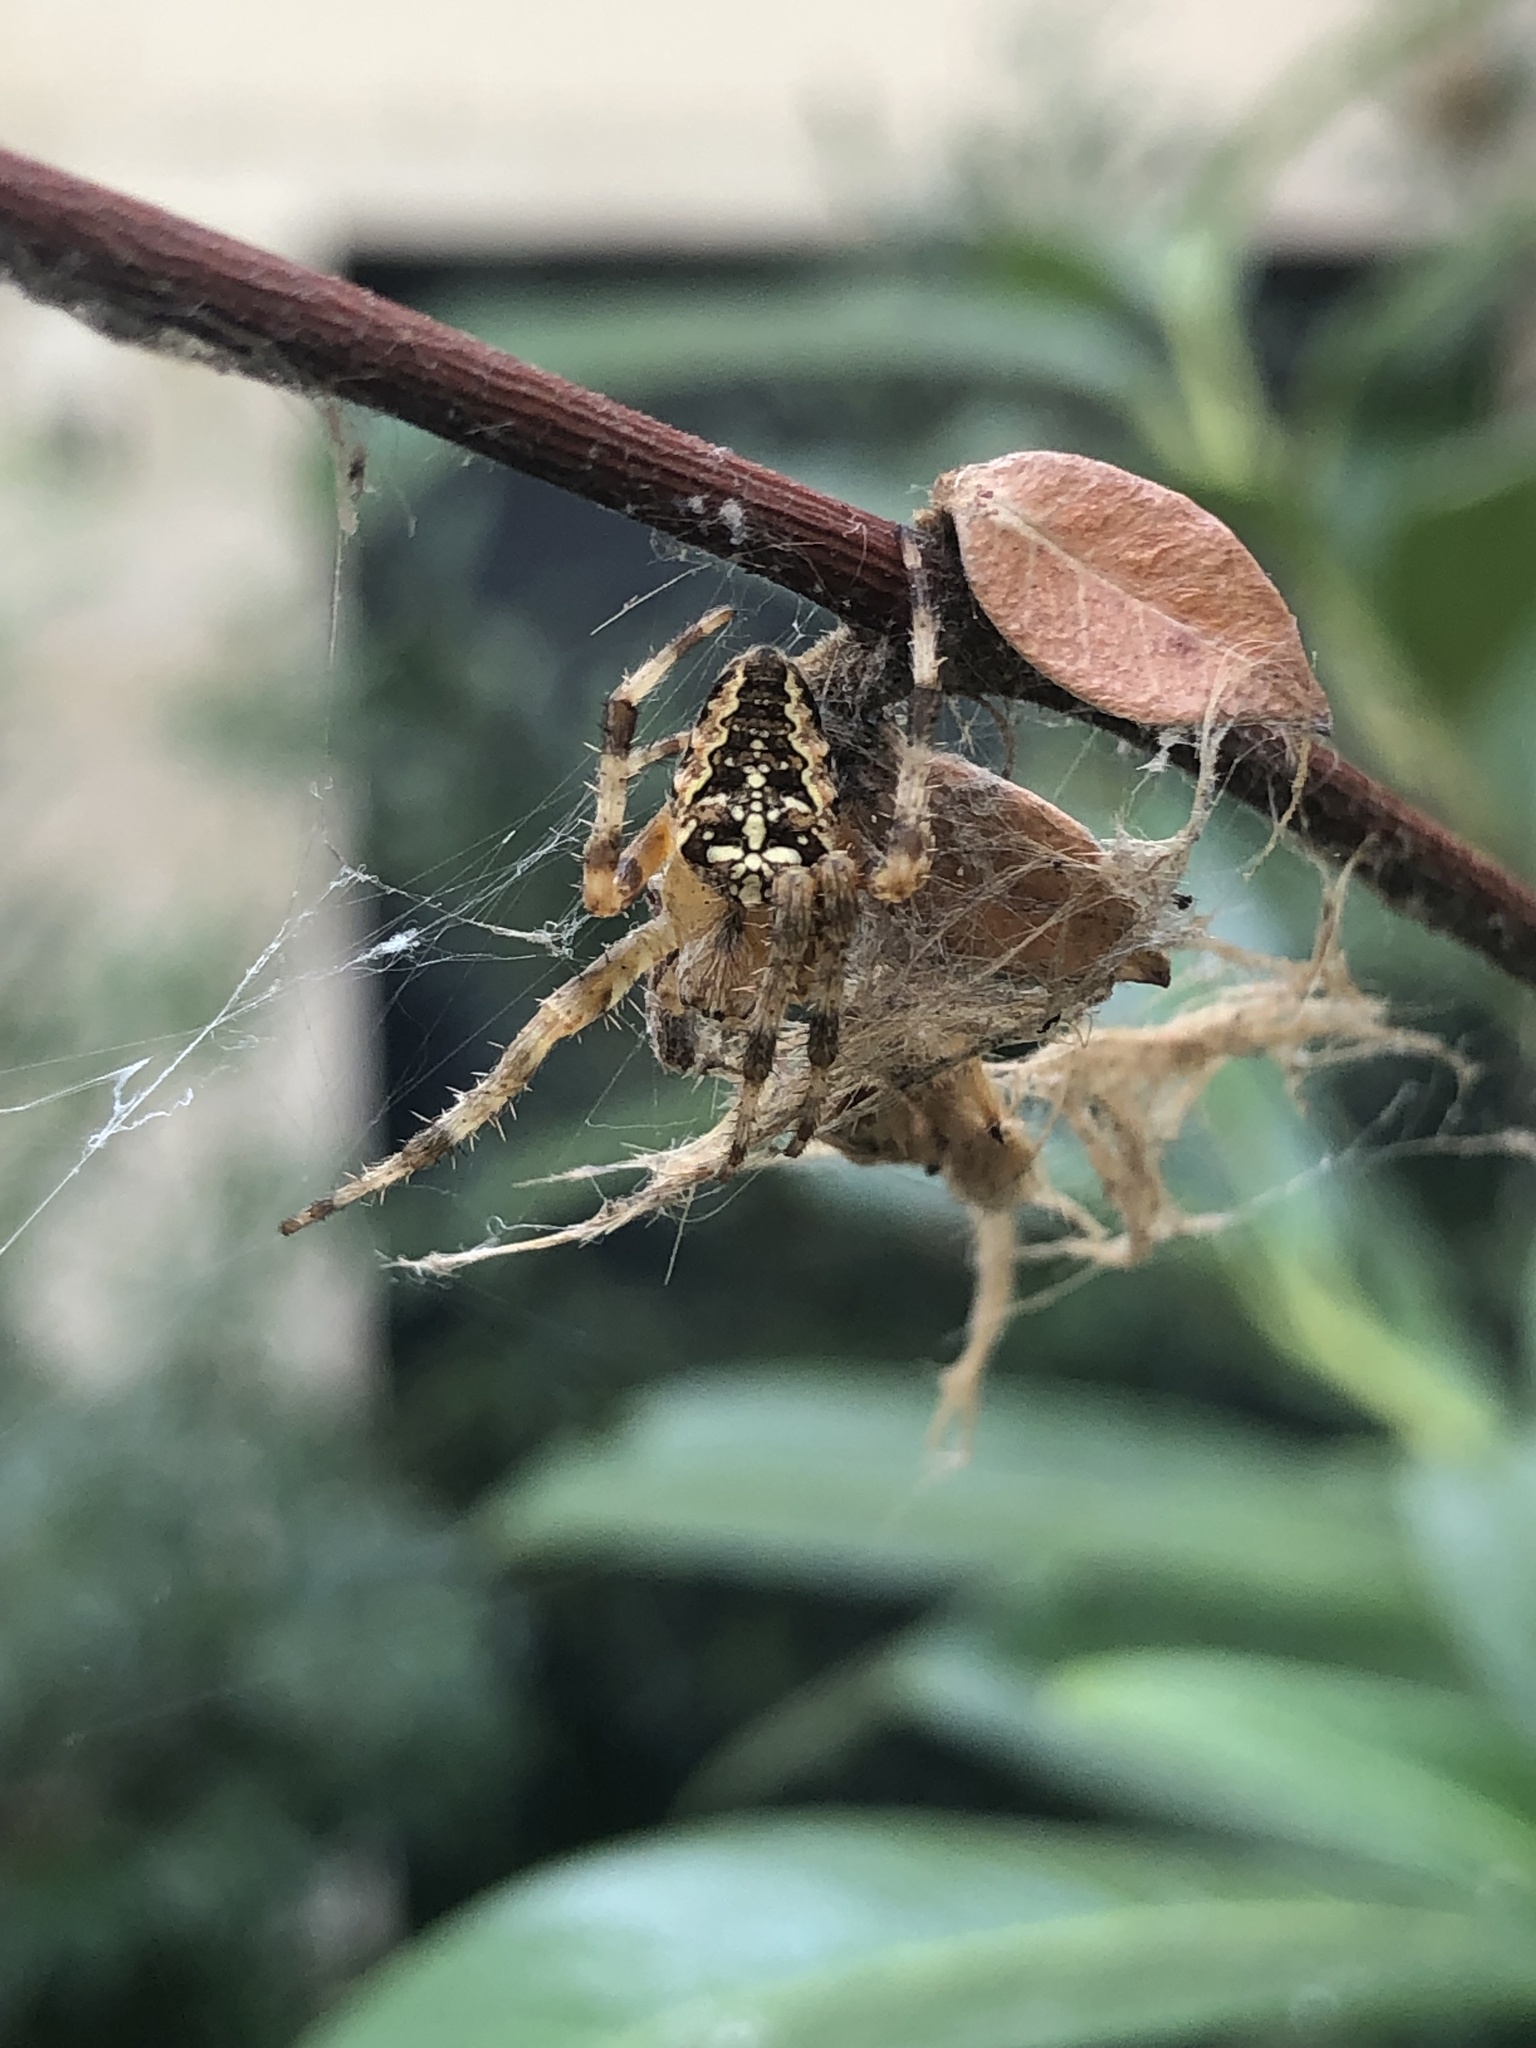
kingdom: Animalia
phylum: Arthropoda
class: Arachnida
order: Araneae
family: Araneidae
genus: Araneus
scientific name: Araneus diadematus
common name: Cross orbweaver
